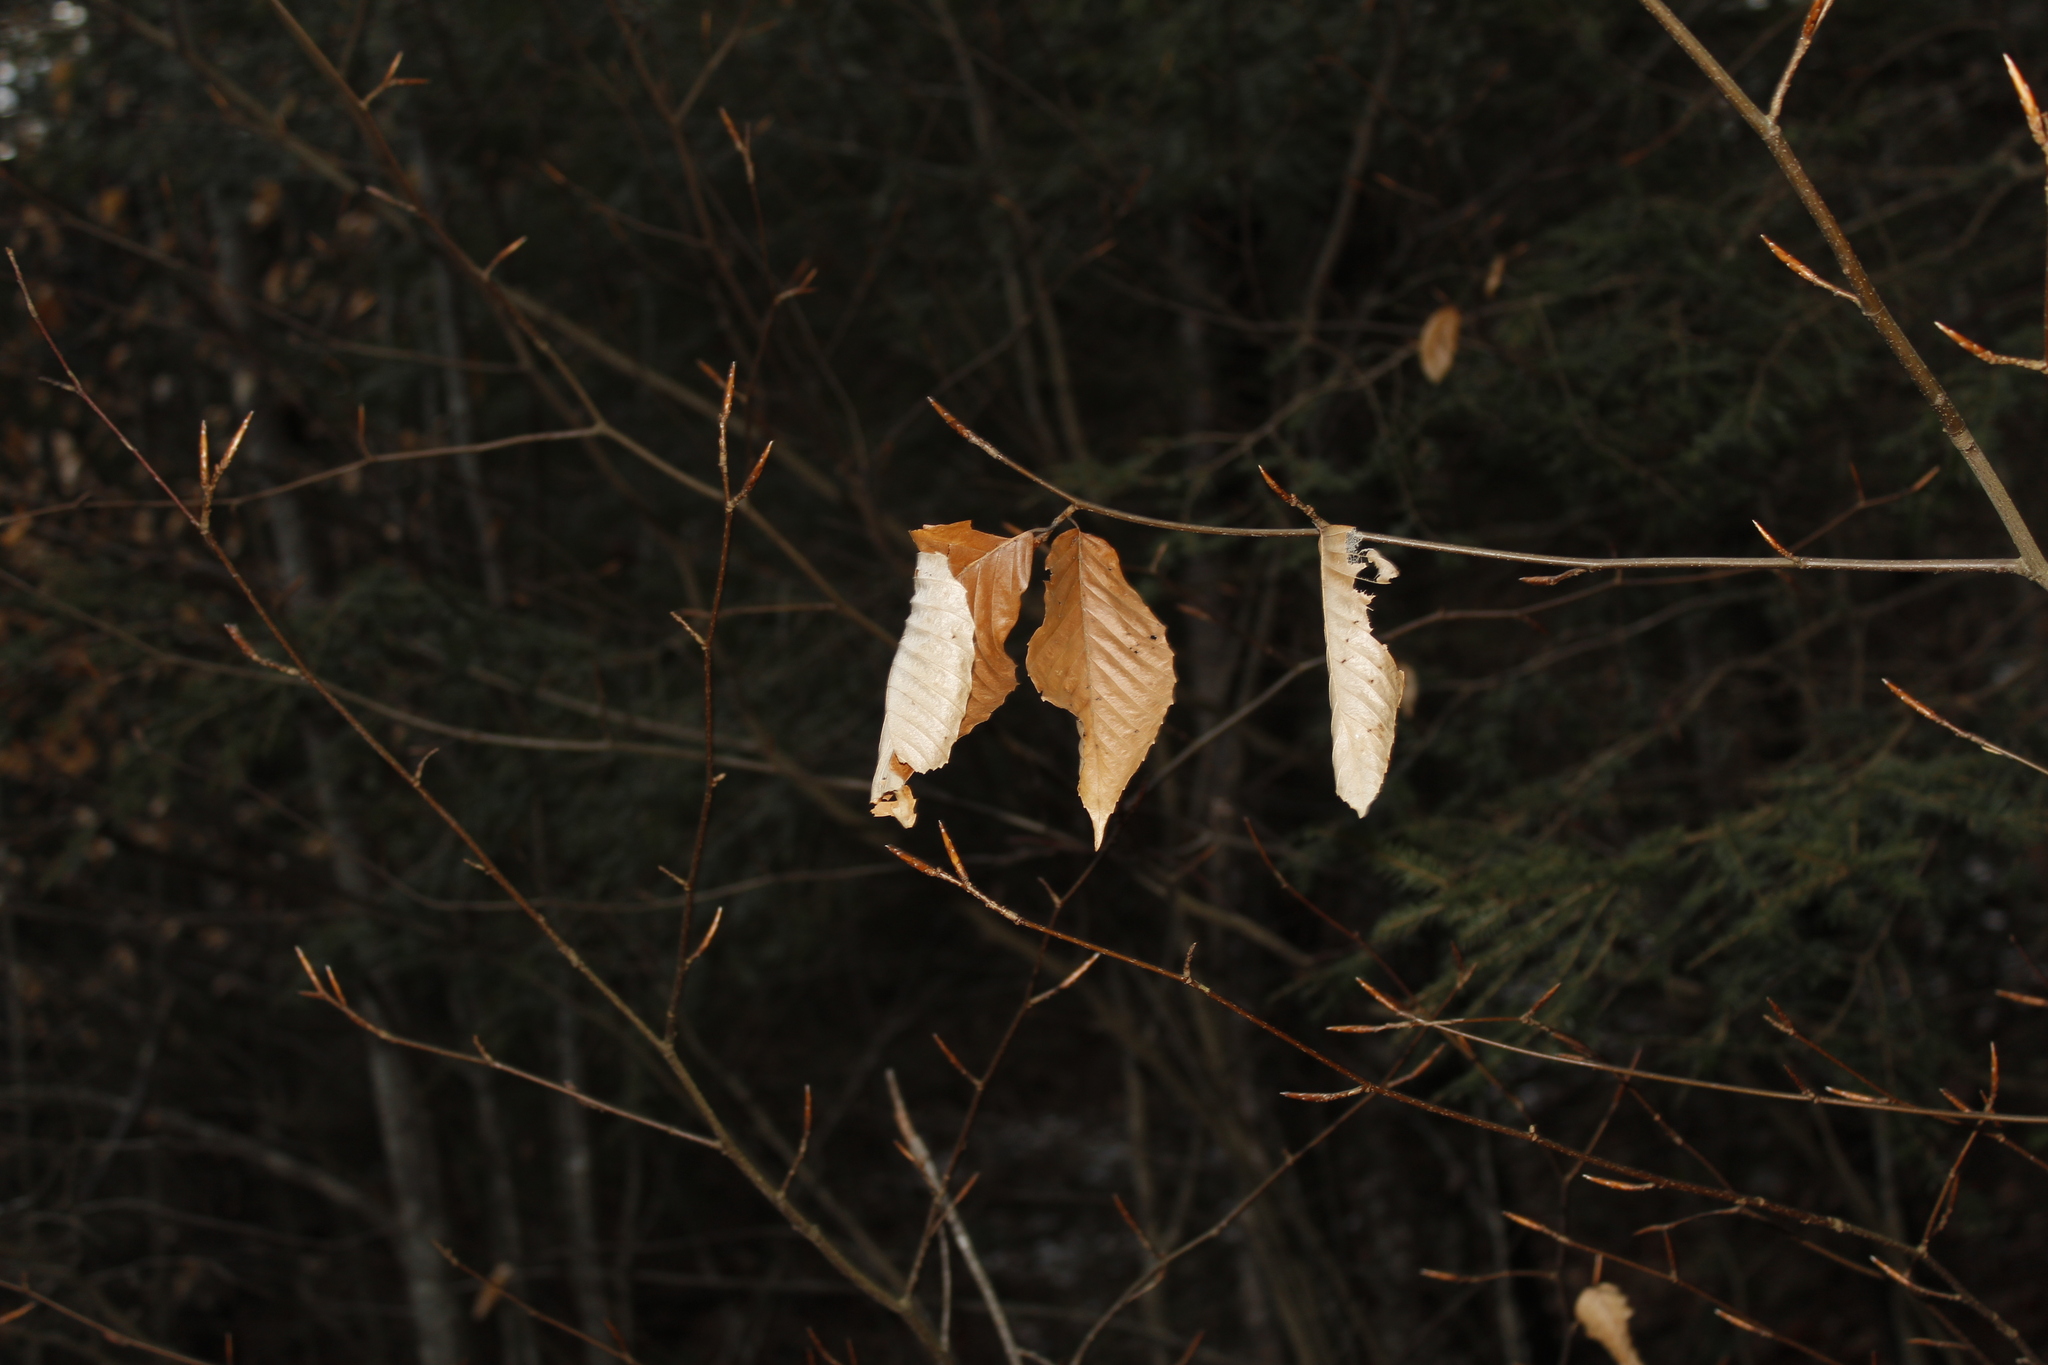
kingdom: Plantae
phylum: Tracheophyta
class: Magnoliopsida
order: Fagales
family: Fagaceae
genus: Fagus
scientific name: Fagus grandifolia
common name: American beech
